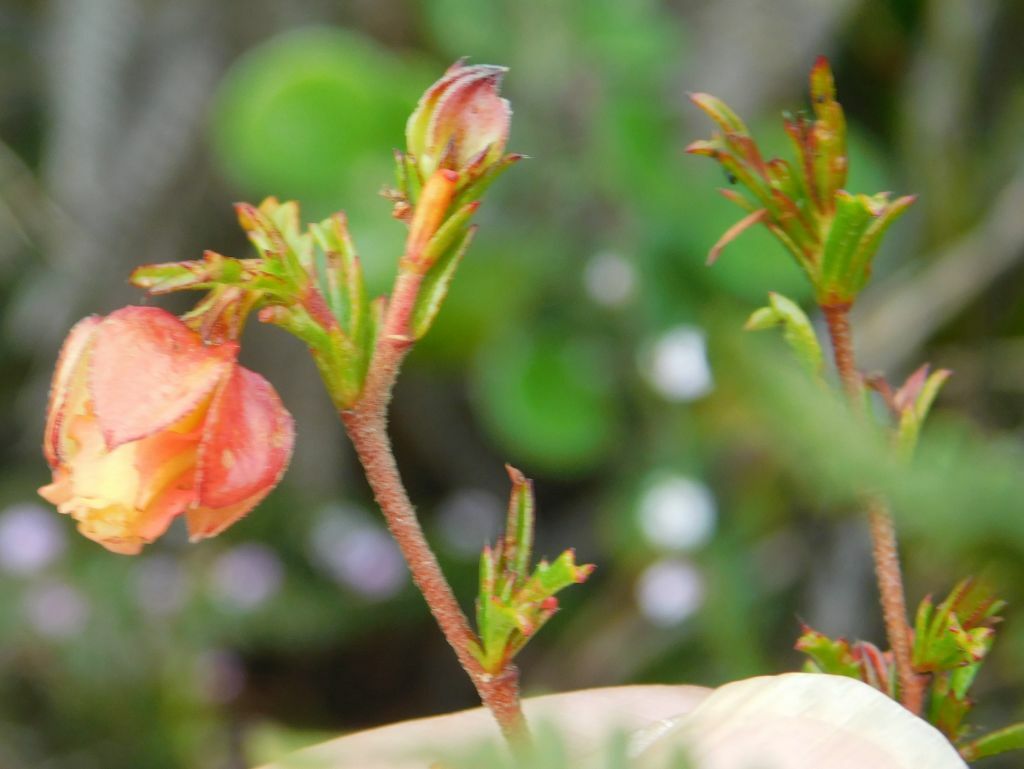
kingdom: Plantae
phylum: Tracheophyta
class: Magnoliopsida
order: Malvales
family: Malvaceae
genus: Hermannia
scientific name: Hermannia angularis
